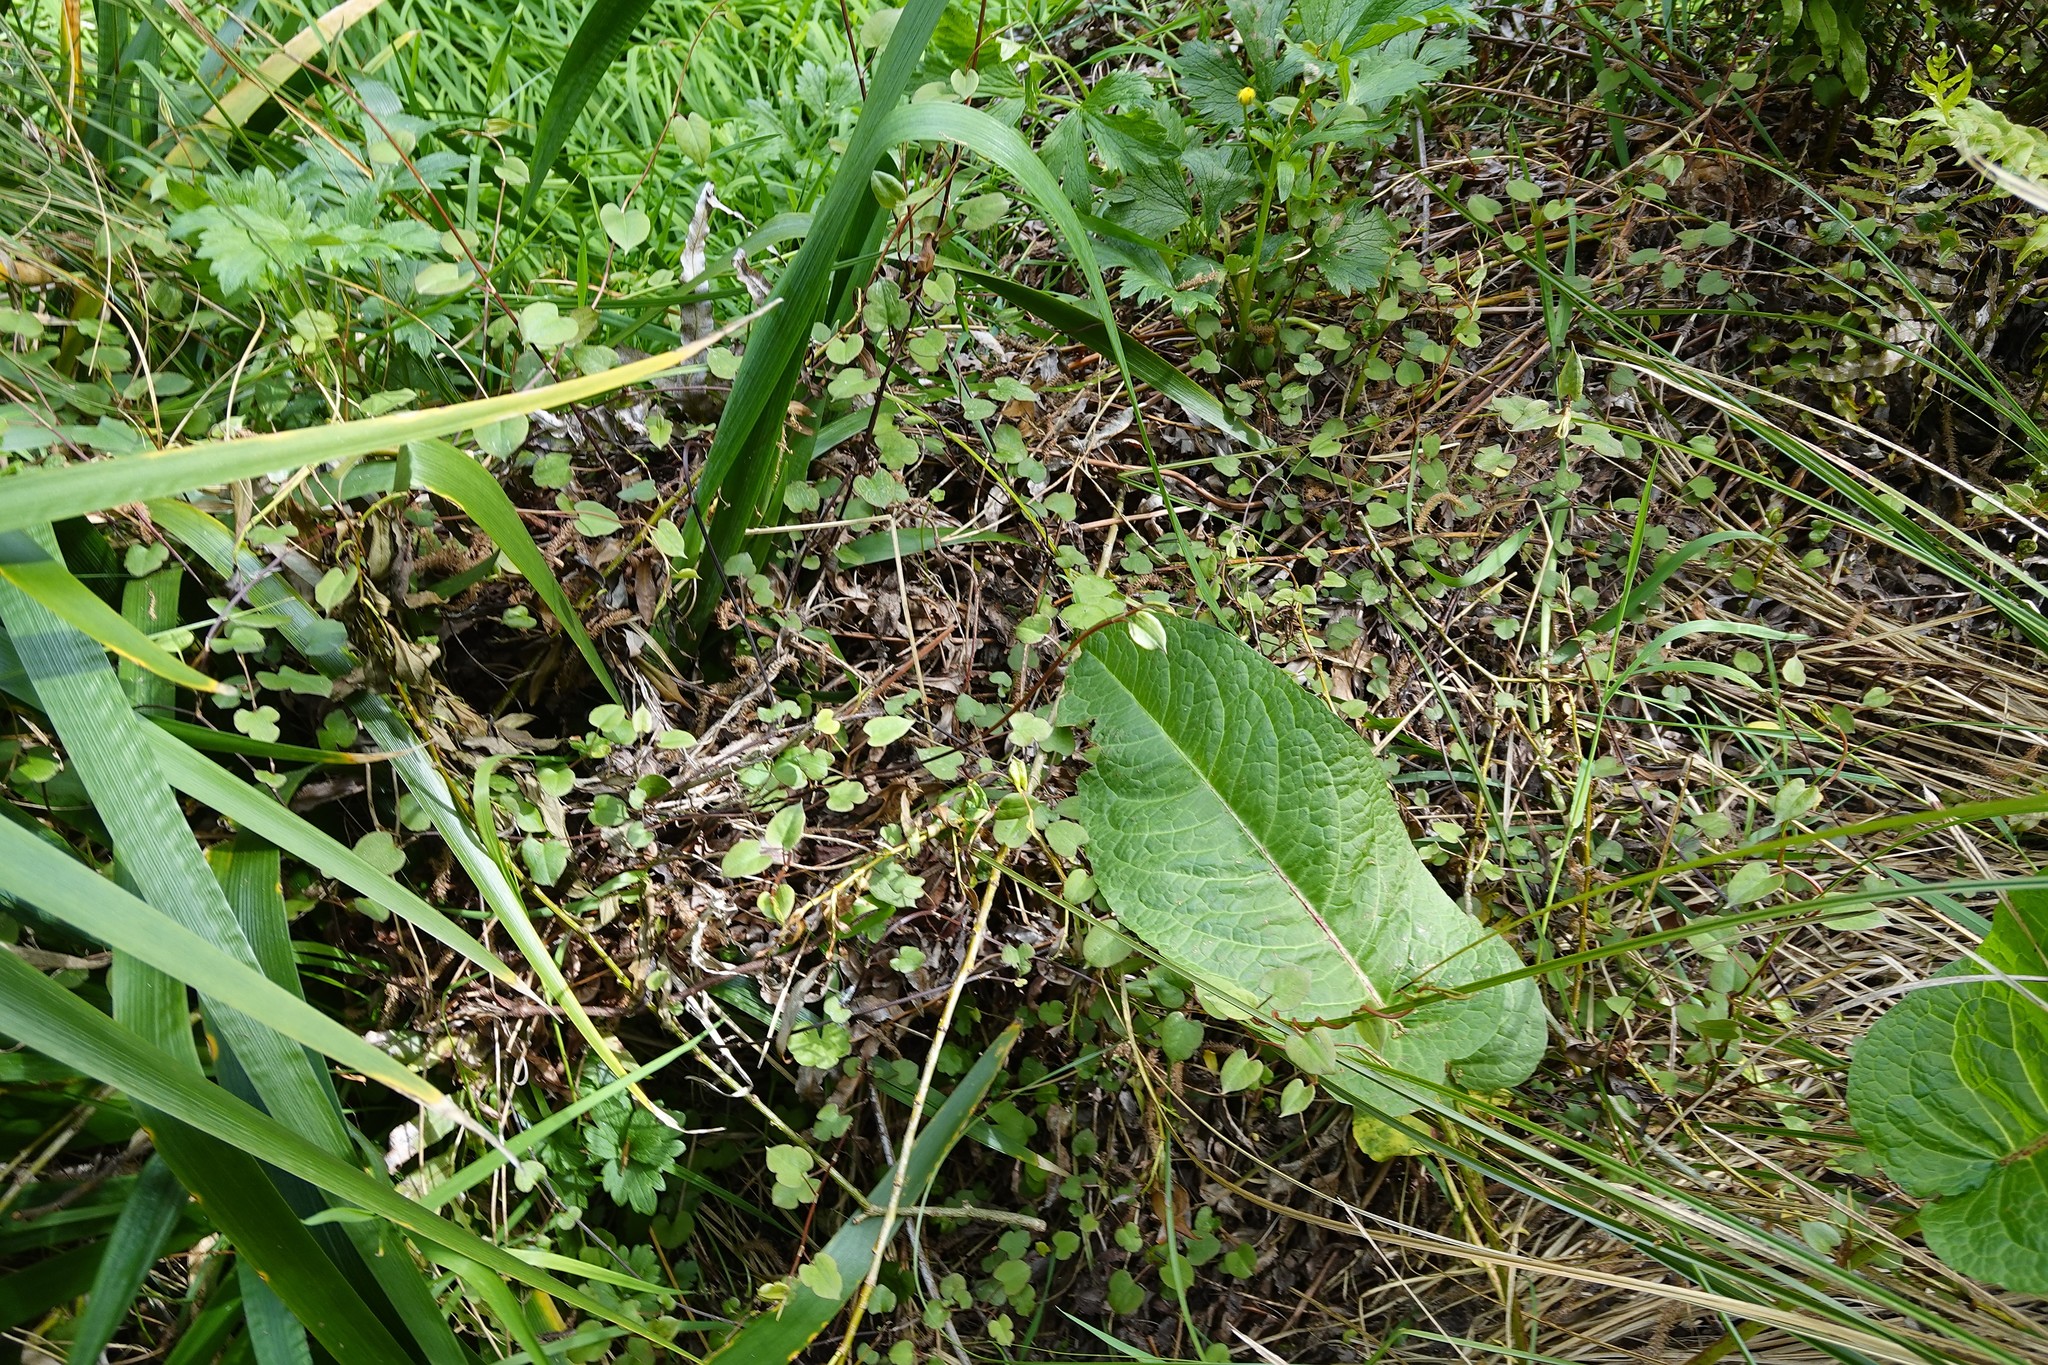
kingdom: Plantae
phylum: Tracheophyta
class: Magnoliopsida
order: Caryophyllales
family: Polygonaceae
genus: Muehlenbeckia
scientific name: Muehlenbeckia australis
